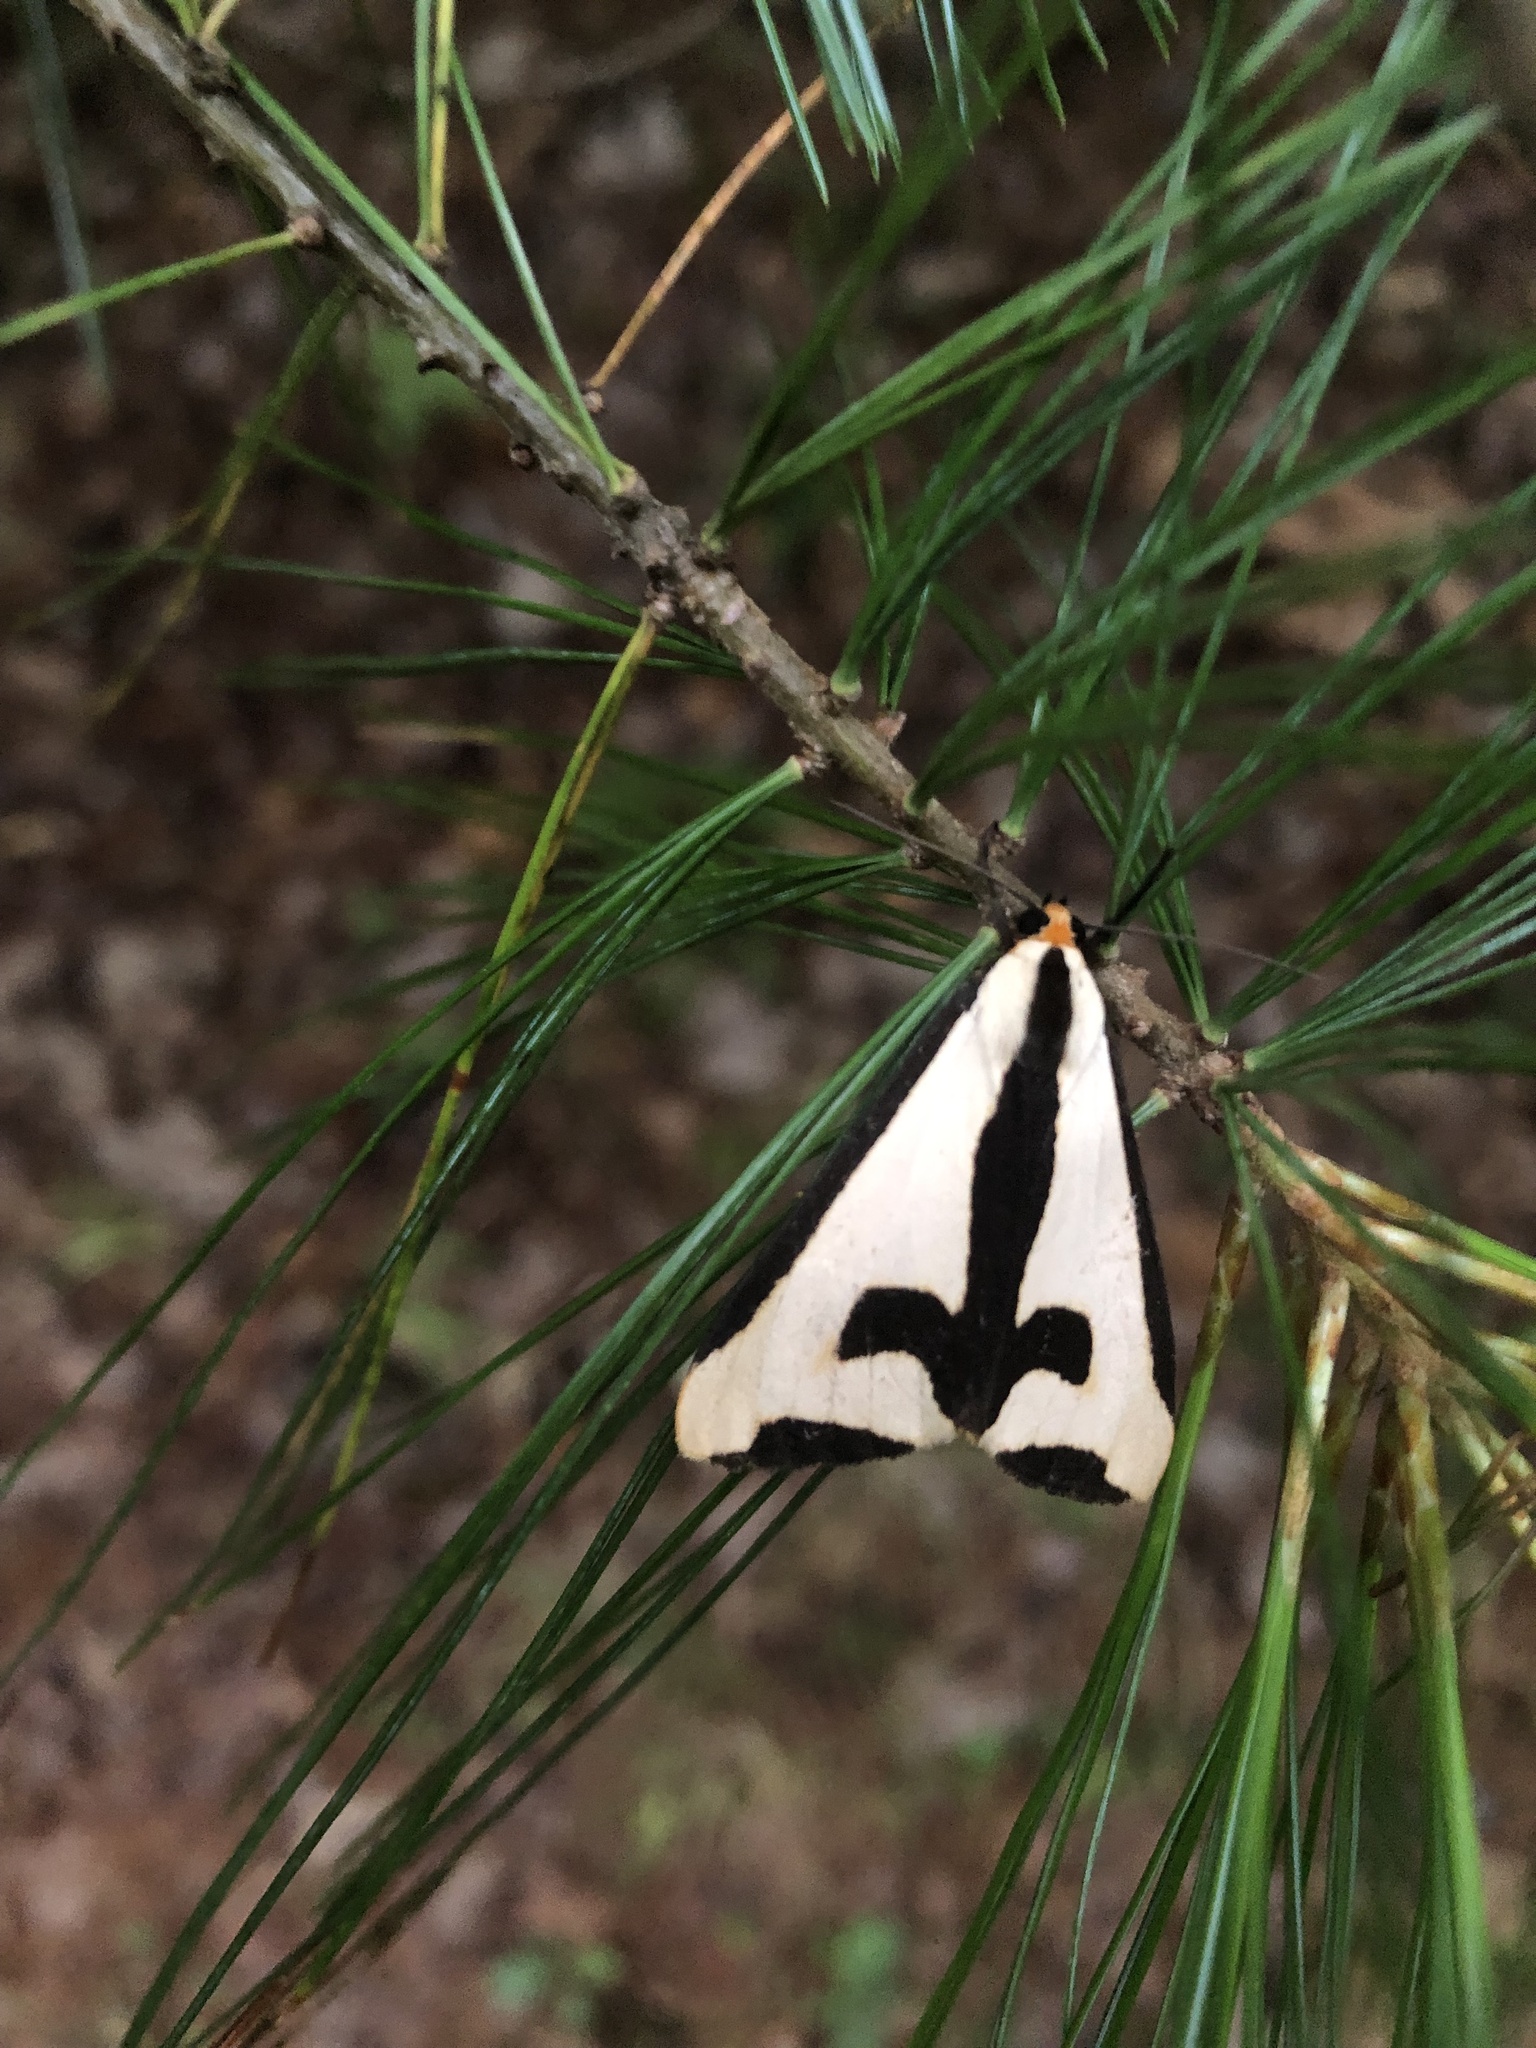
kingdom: Animalia
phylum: Arthropoda
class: Insecta
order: Lepidoptera
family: Erebidae
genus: Haploa
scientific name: Haploa clymene
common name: Clymene moth
